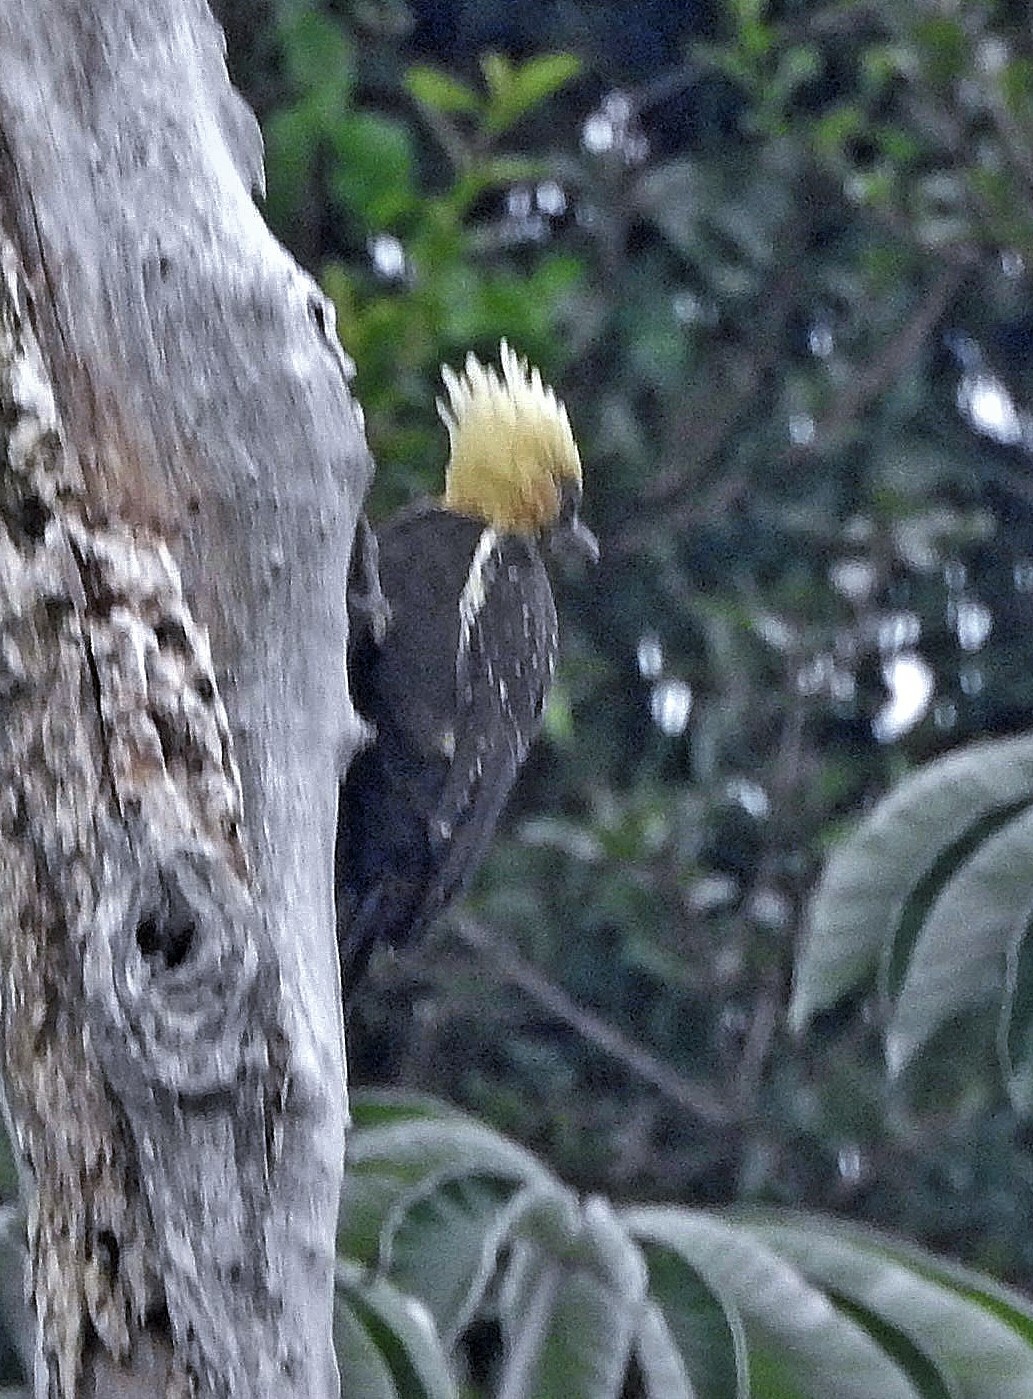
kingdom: Animalia
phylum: Chordata
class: Aves
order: Piciformes
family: Picidae
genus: Celeus
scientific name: Celeus lugubris
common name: Pale-crested woodpecker
